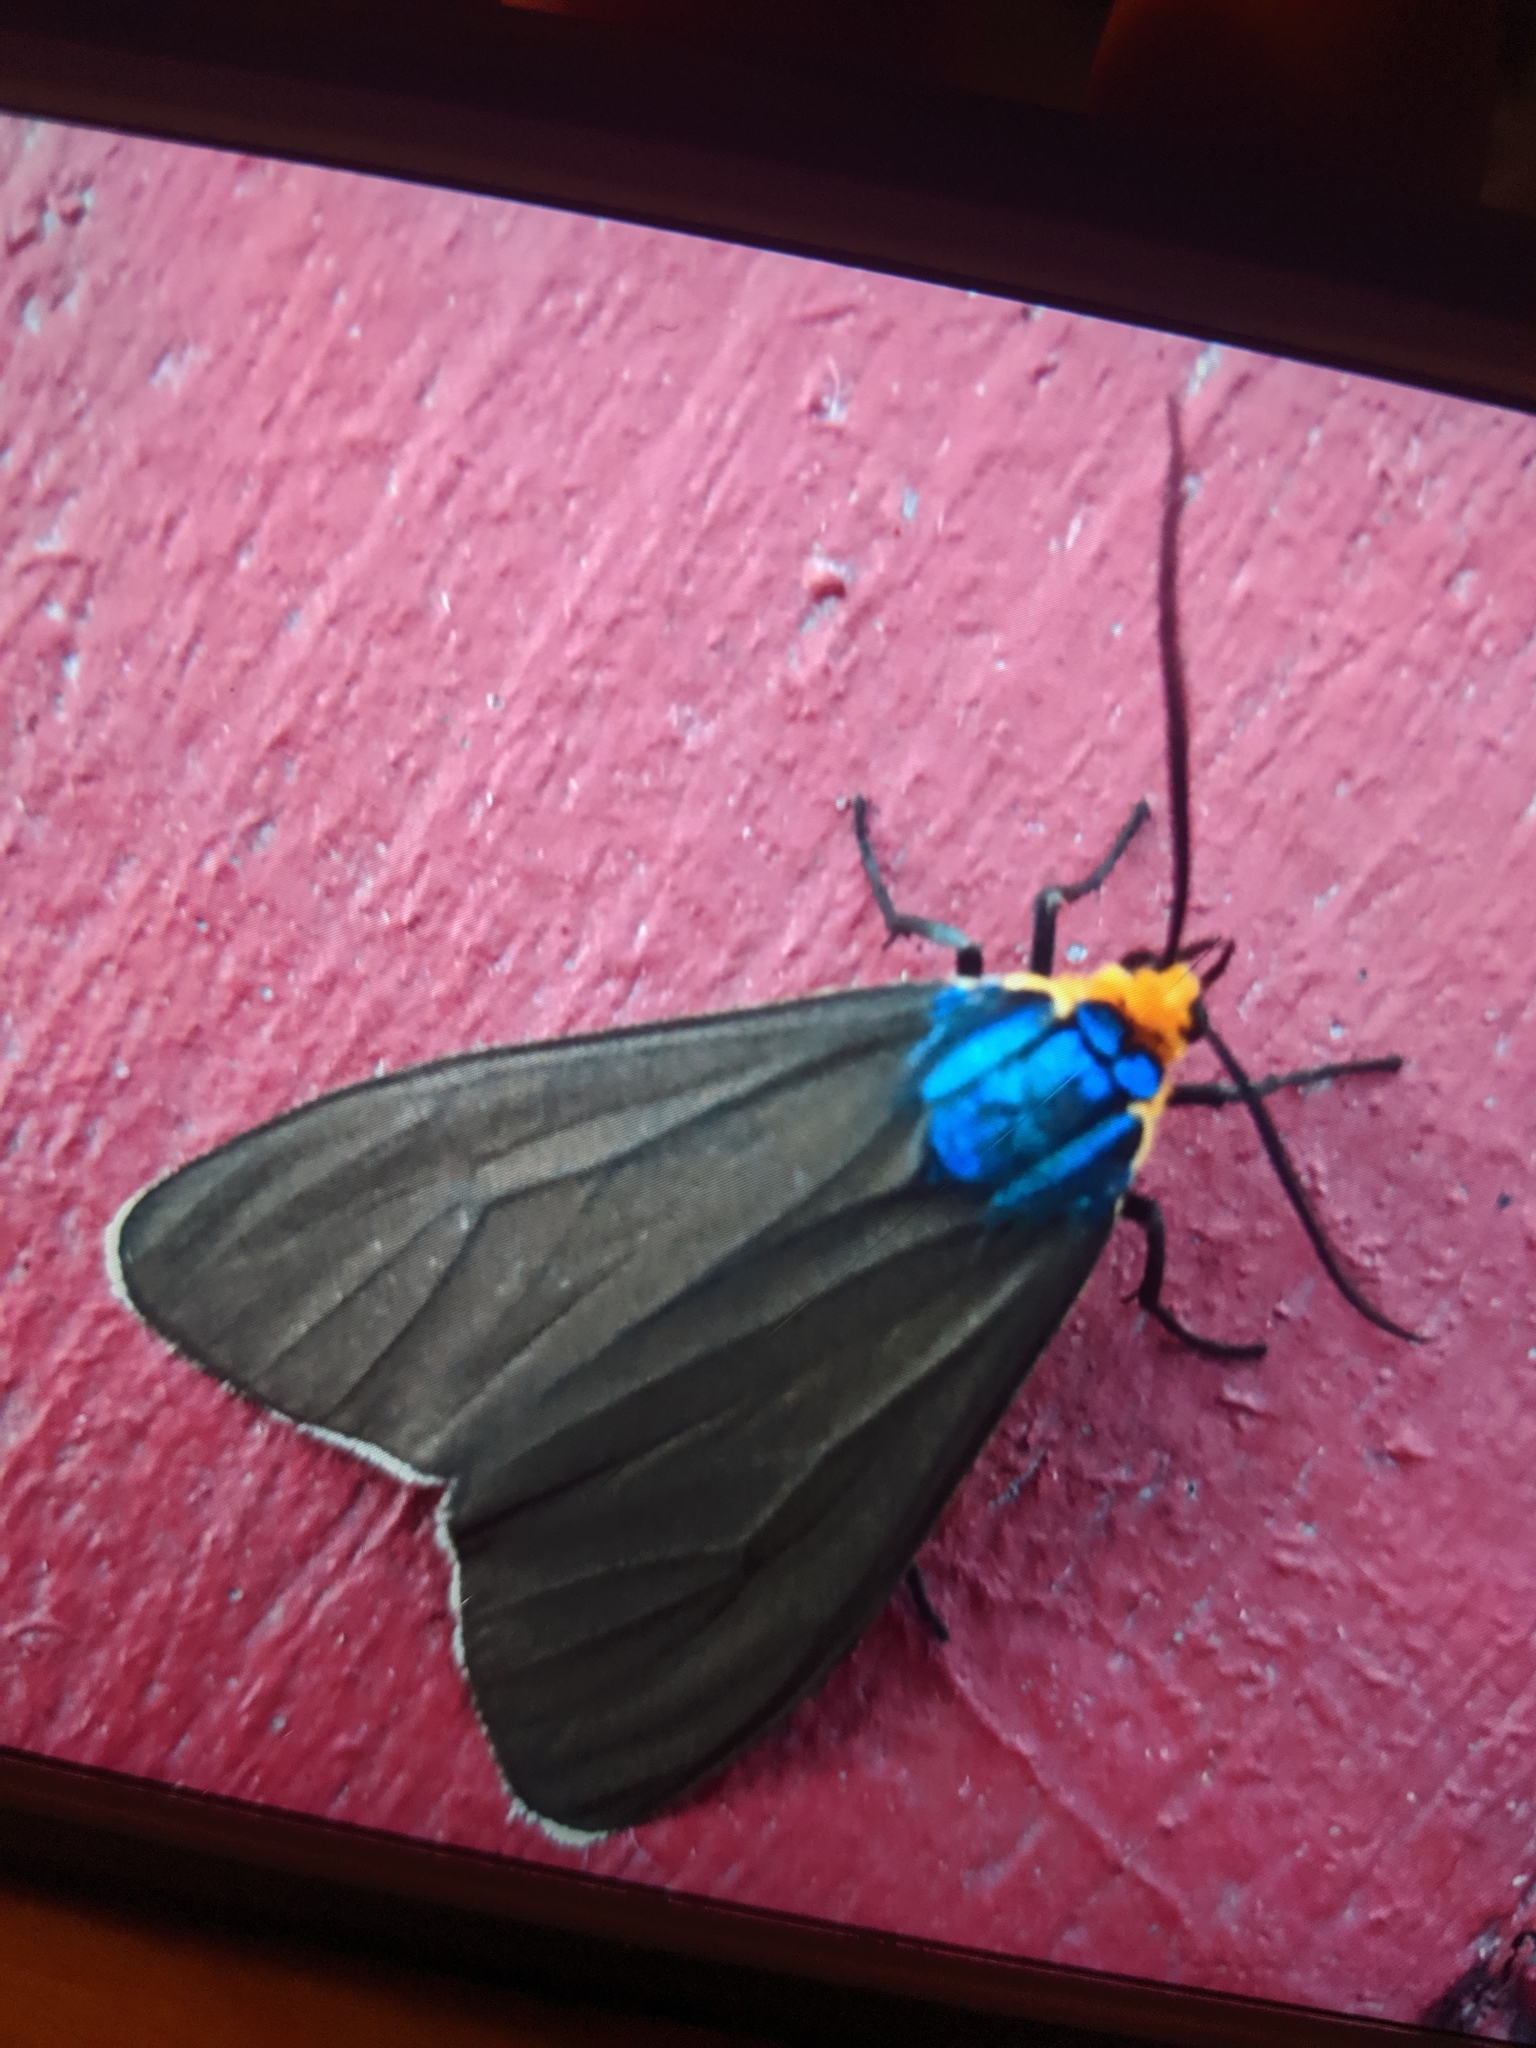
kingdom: Animalia
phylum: Arthropoda
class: Insecta
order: Lepidoptera
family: Erebidae
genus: Ctenucha
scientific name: Ctenucha virginica
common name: Virginia ctenucha moth
